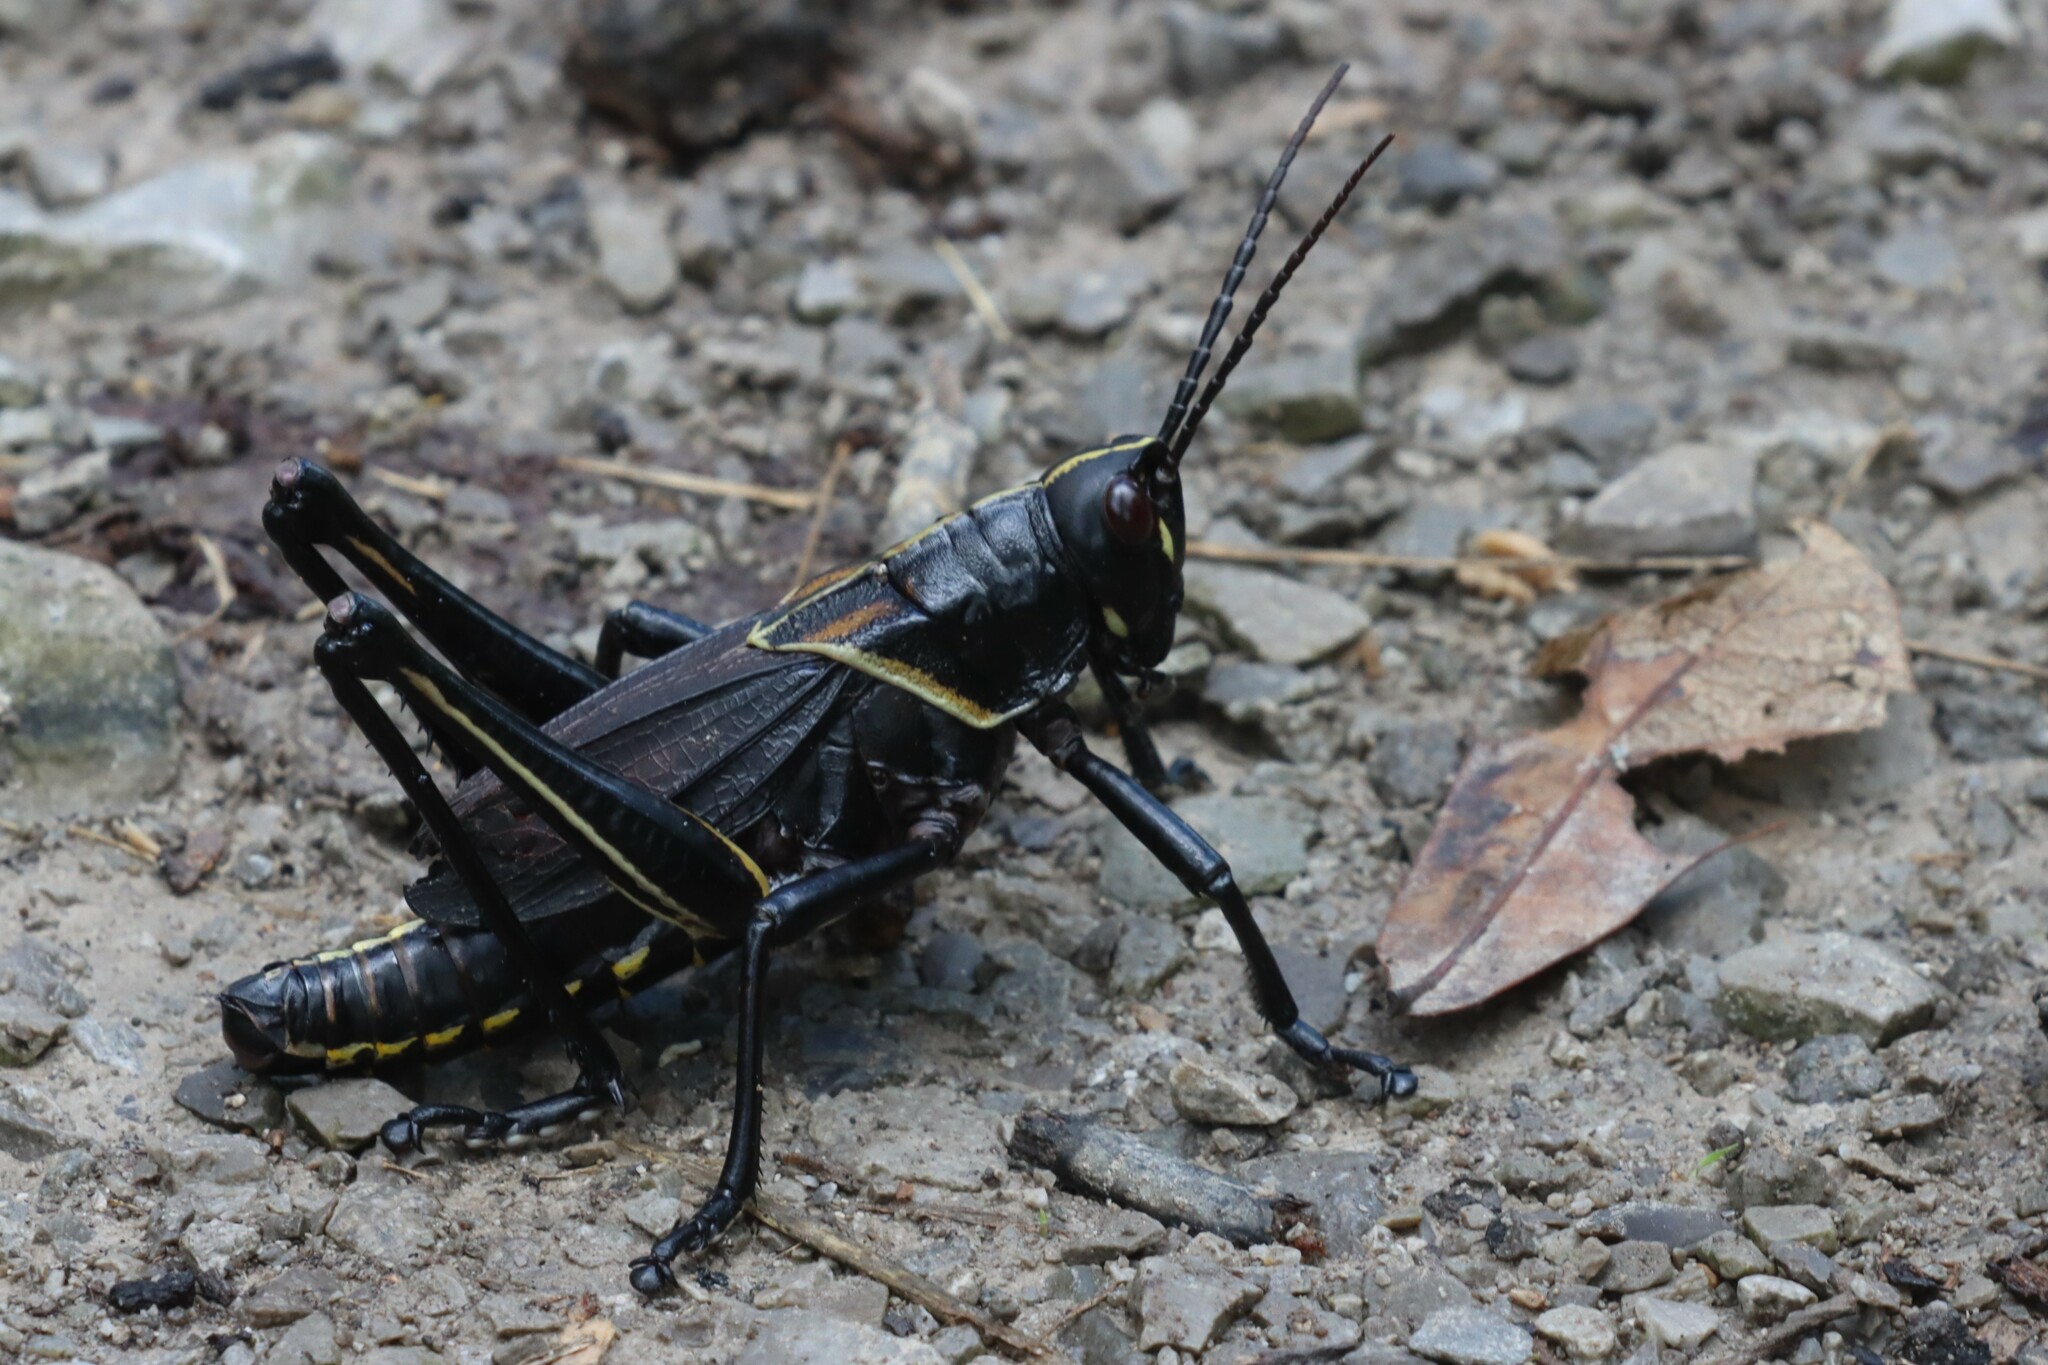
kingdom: Animalia
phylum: Arthropoda
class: Insecta
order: Orthoptera
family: Romaleidae
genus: Romalea
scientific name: Romalea microptera
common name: Eastern lubber grasshopper
